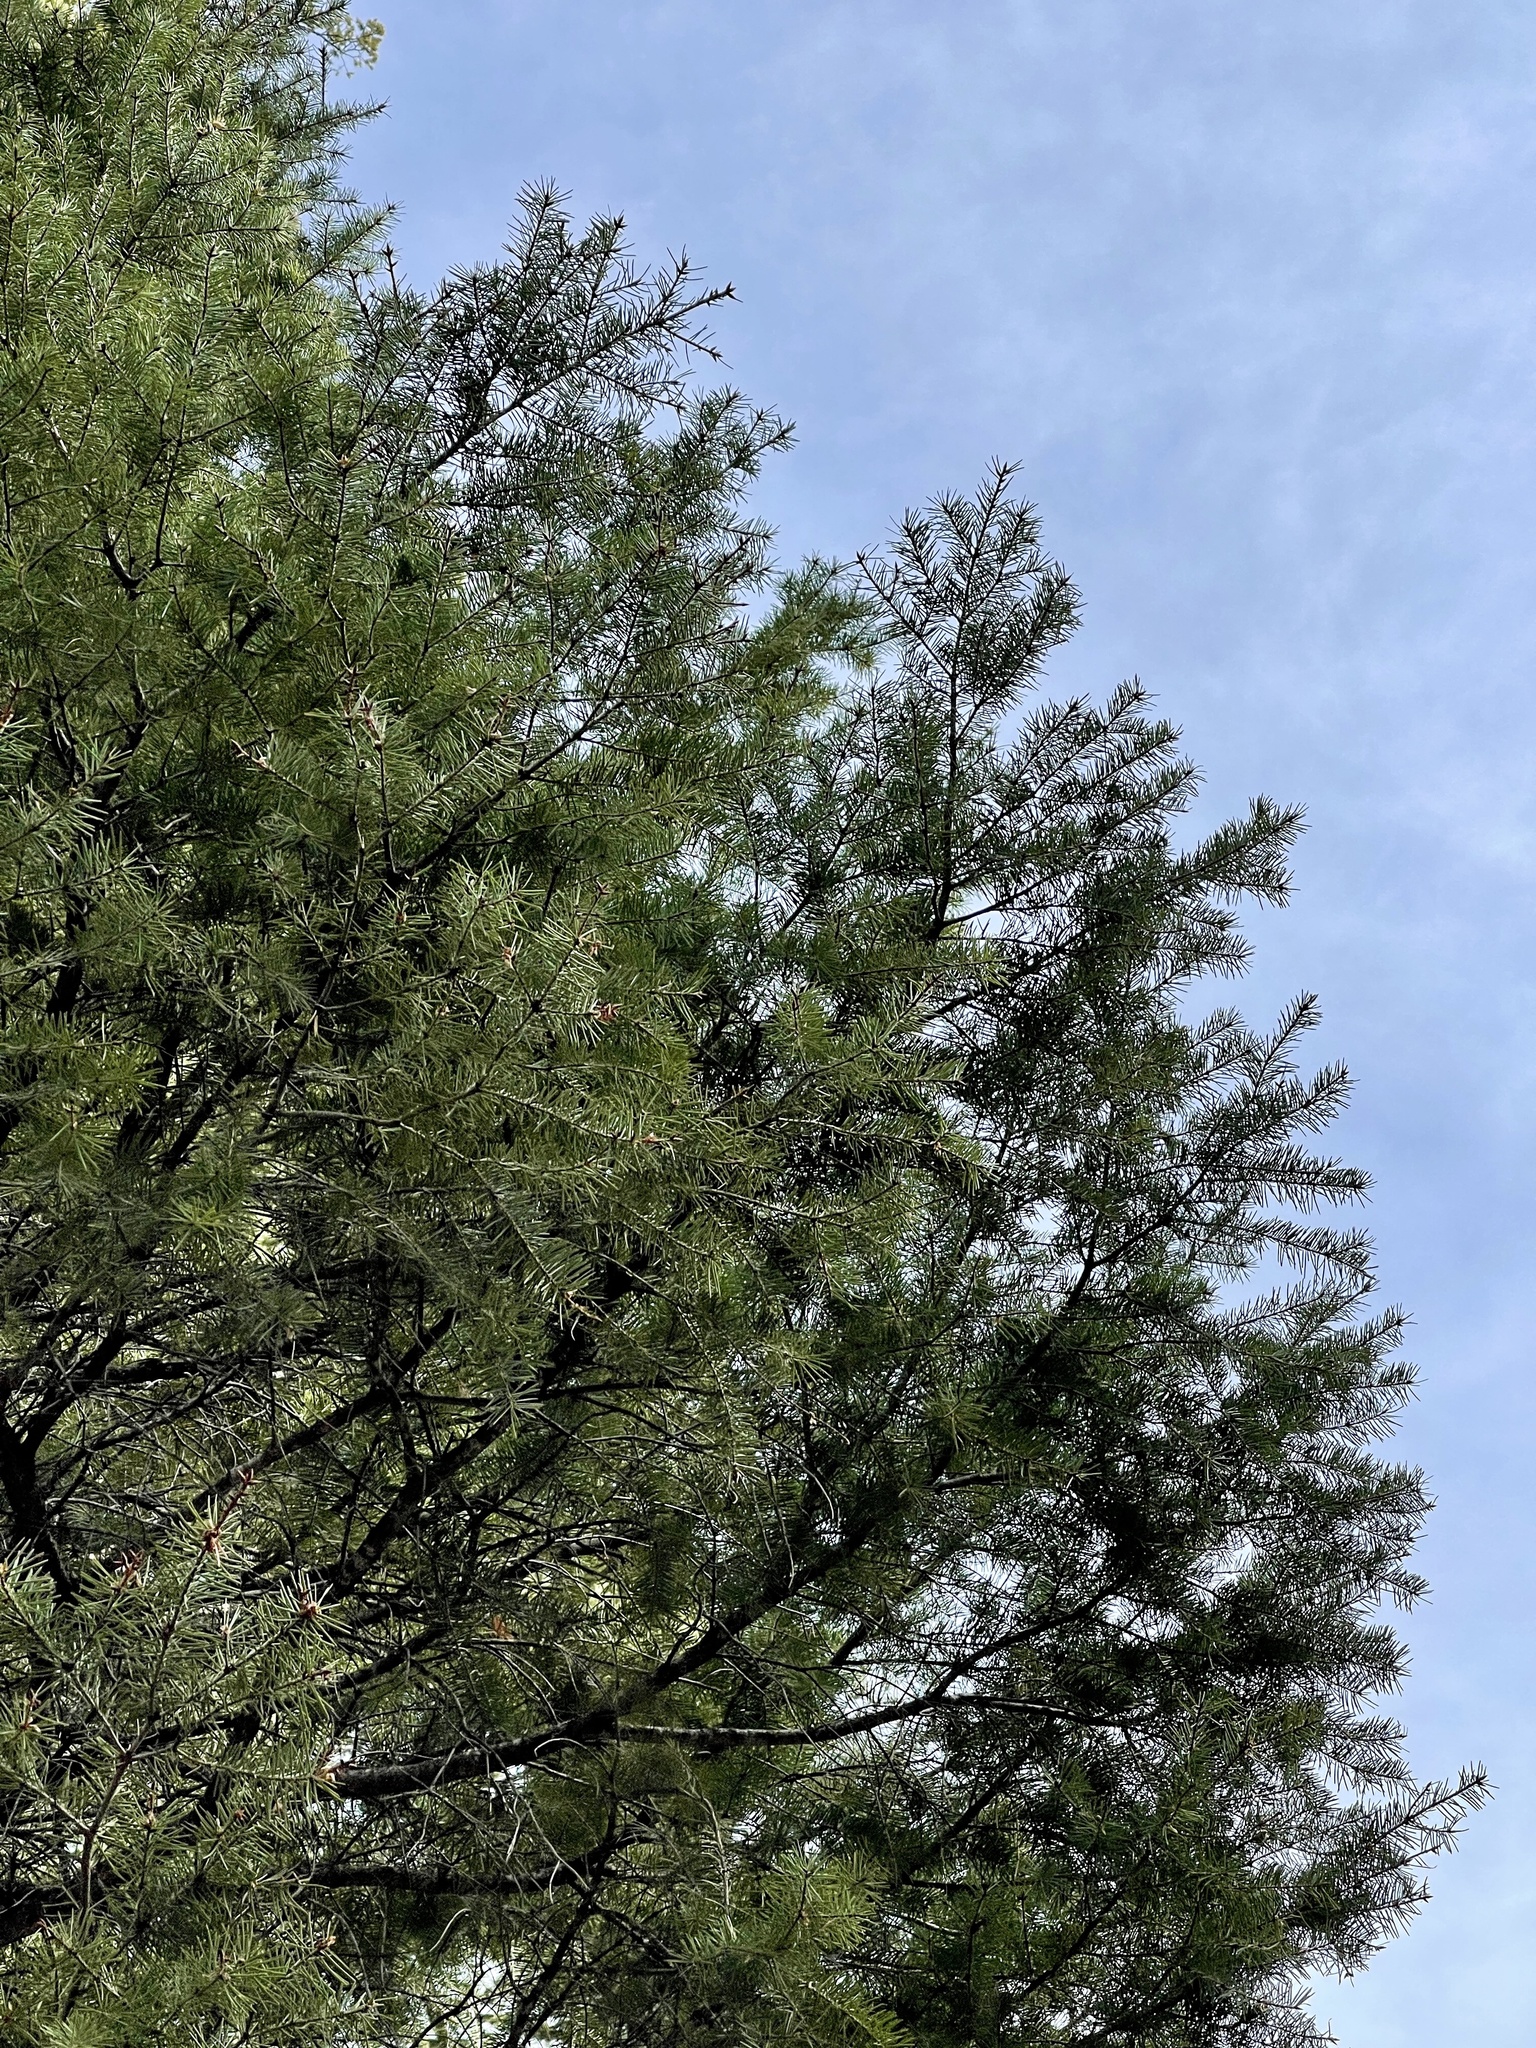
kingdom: Plantae
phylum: Tracheophyta
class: Pinopsida
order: Pinales
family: Pinaceae
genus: Abies
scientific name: Abies concolor
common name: Colorado fir
